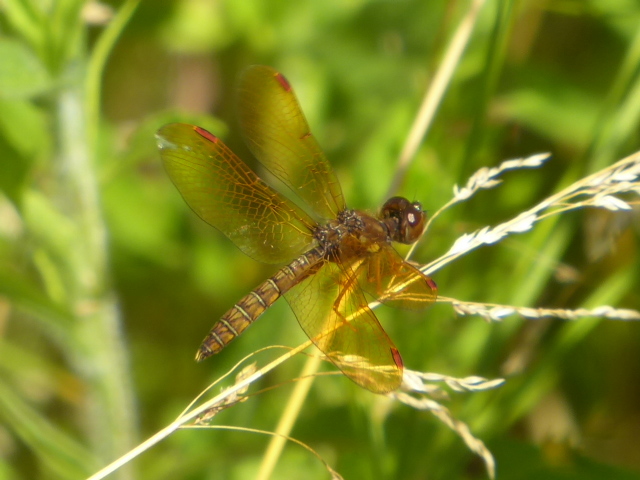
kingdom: Animalia
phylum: Arthropoda
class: Insecta
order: Odonata
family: Libellulidae
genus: Perithemis
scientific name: Perithemis tenera
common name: Eastern amberwing
